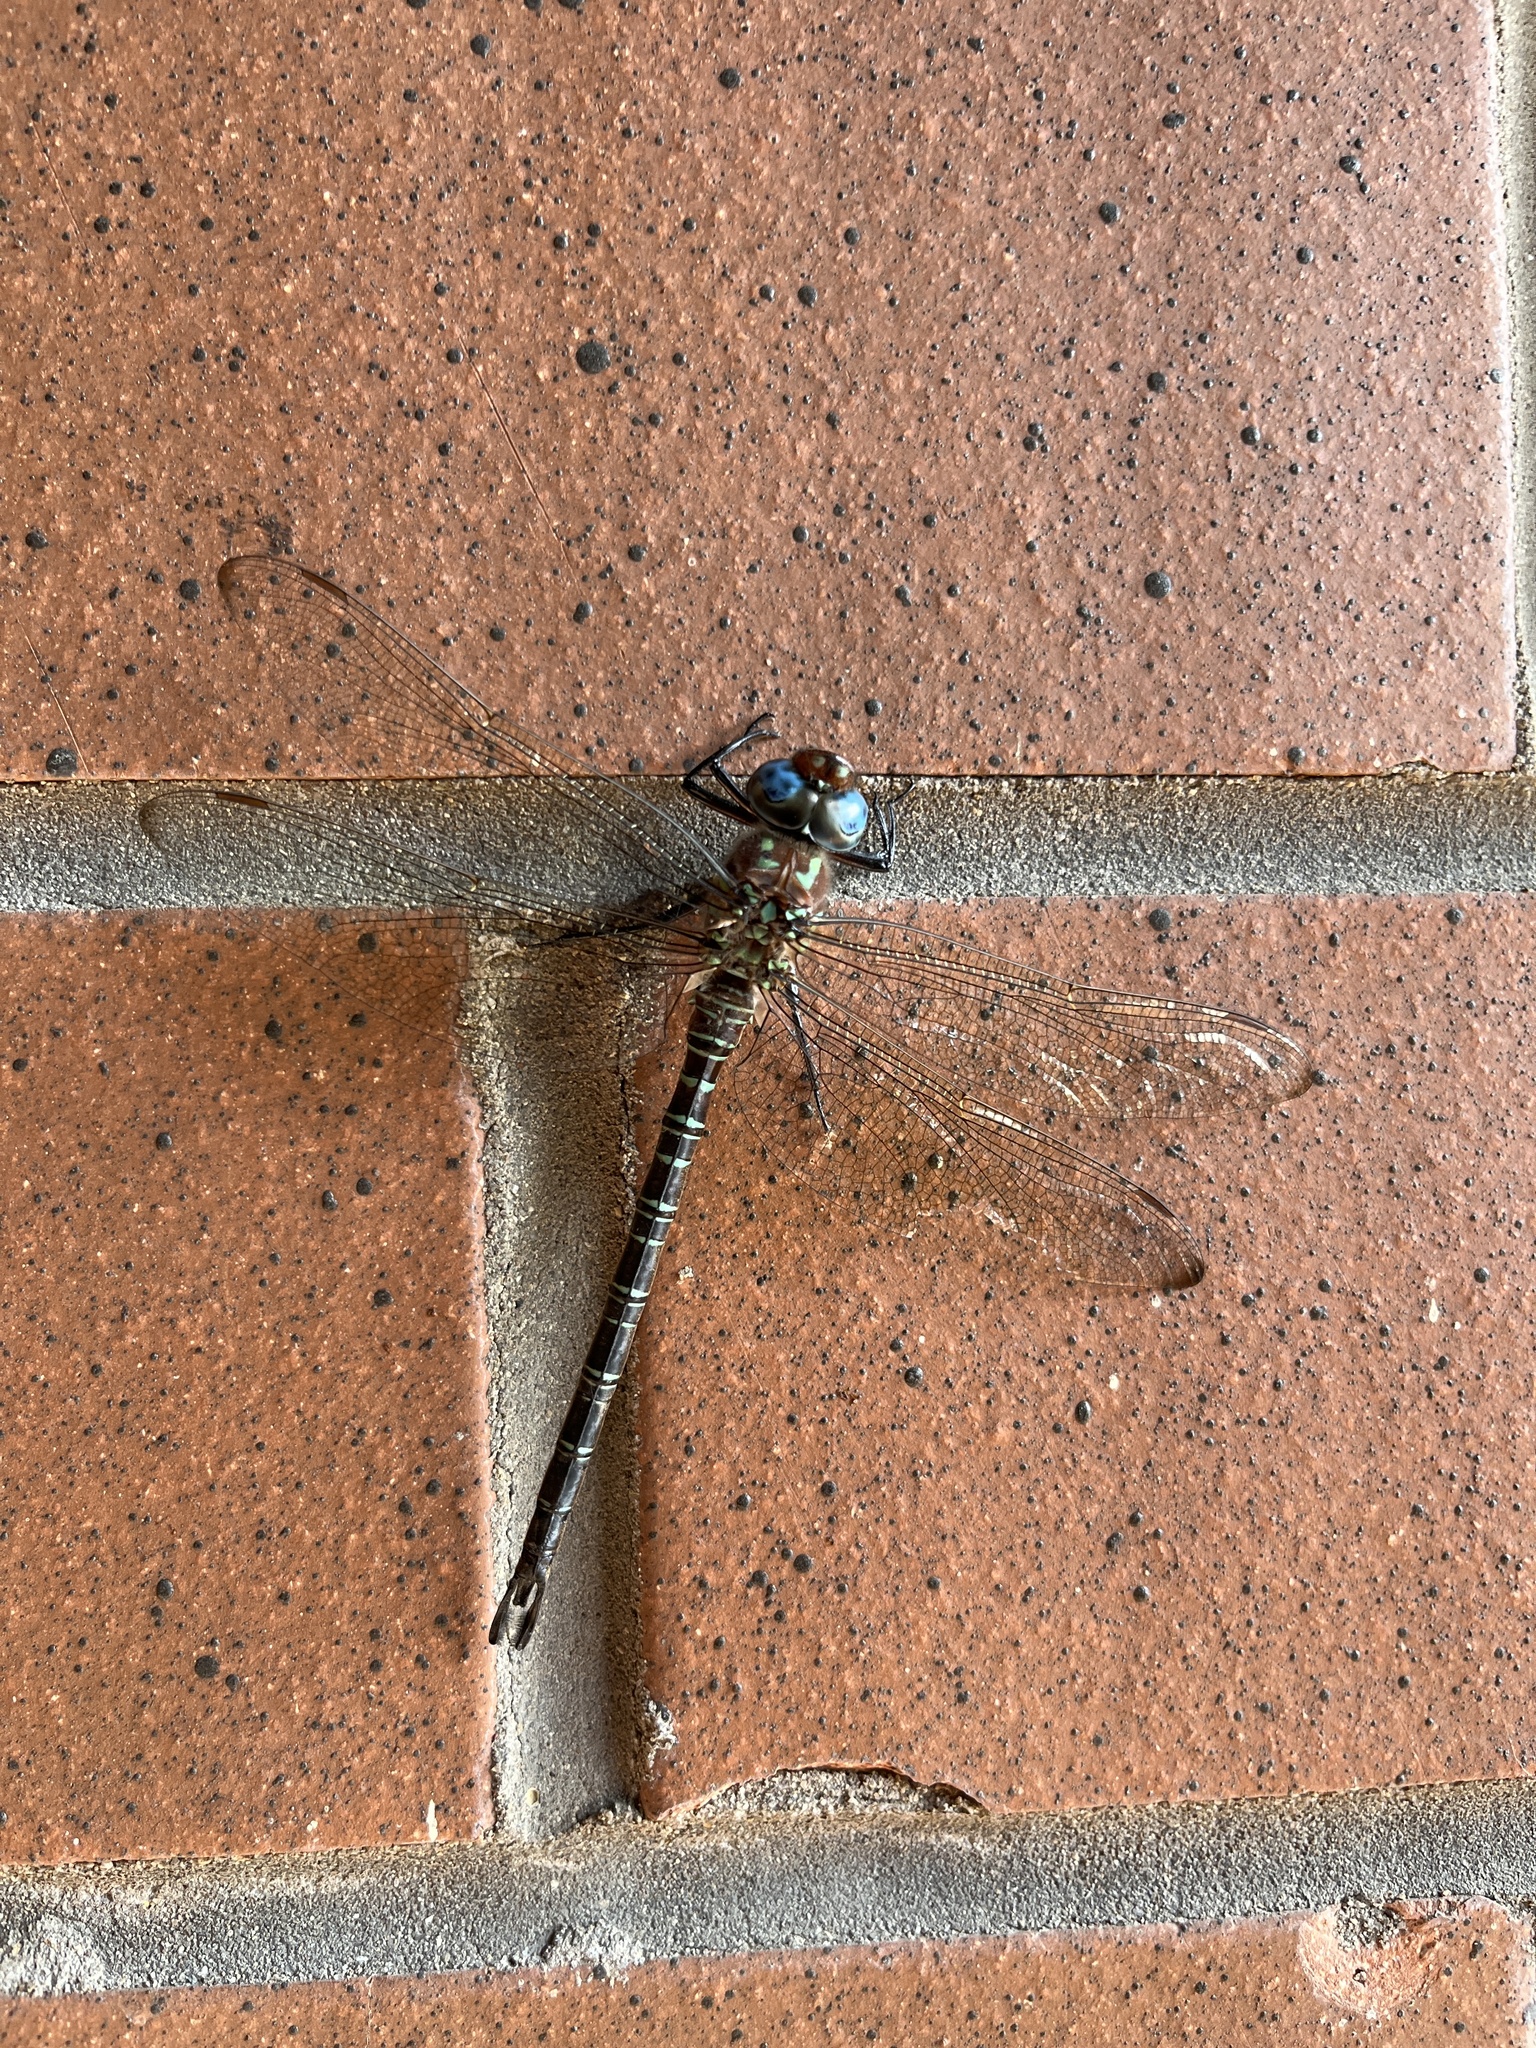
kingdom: Animalia
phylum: Arthropoda
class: Insecta
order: Odonata
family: Aeshnidae
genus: Epiaeschna
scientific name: Epiaeschna heros
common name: Swamp darner
